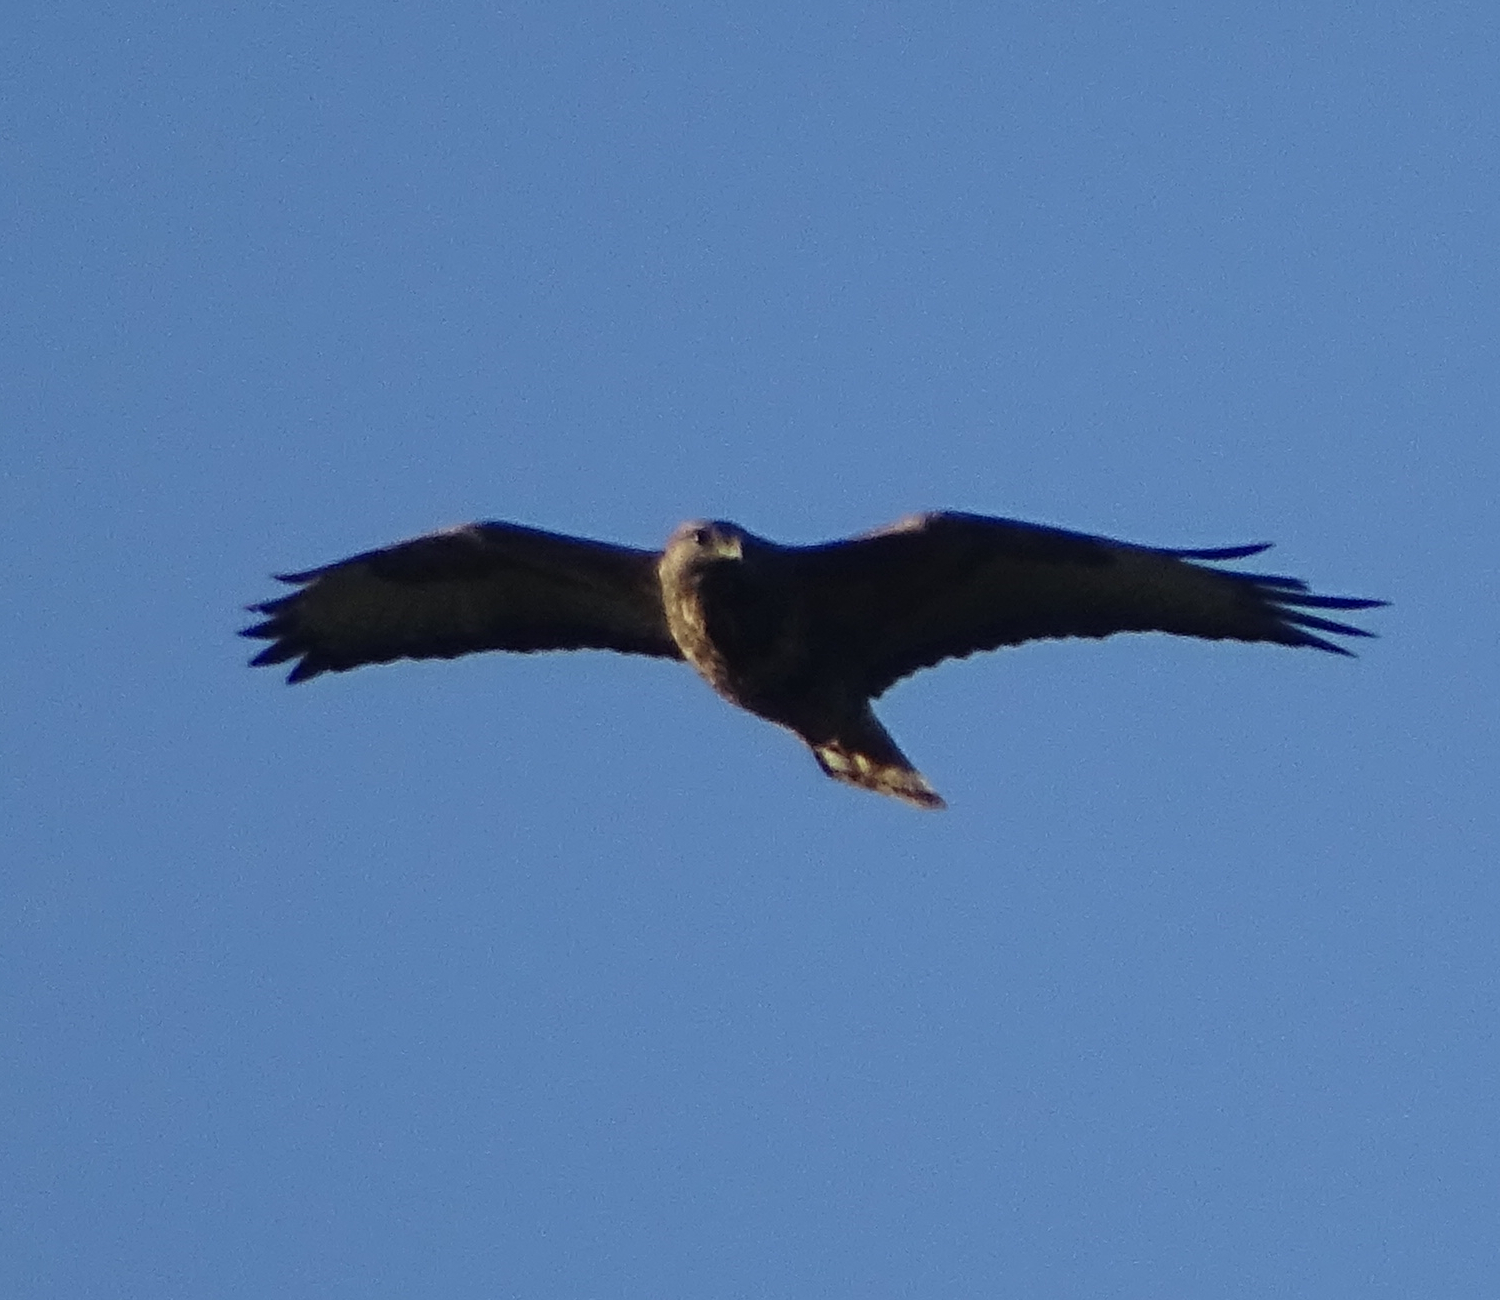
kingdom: Animalia
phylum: Chordata
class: Aves
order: Accipitriformes
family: Accipitridae
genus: Buteo
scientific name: Buteo buteo
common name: Common buzzard
